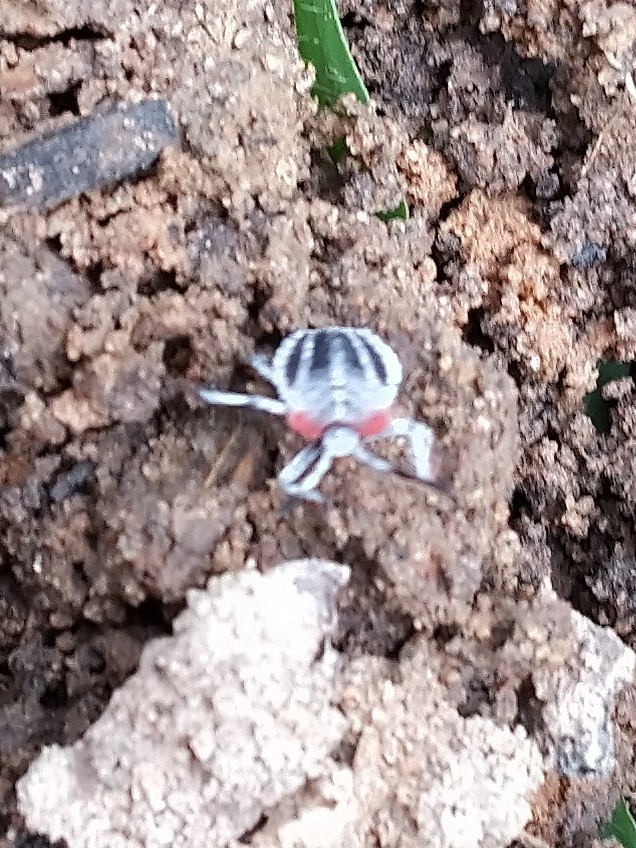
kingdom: Animalia
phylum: Arthropoda
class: Insecta
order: Hemiptera
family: Tessaratomidae
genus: Tessaratoma
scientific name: Tessaratoma papillosa
